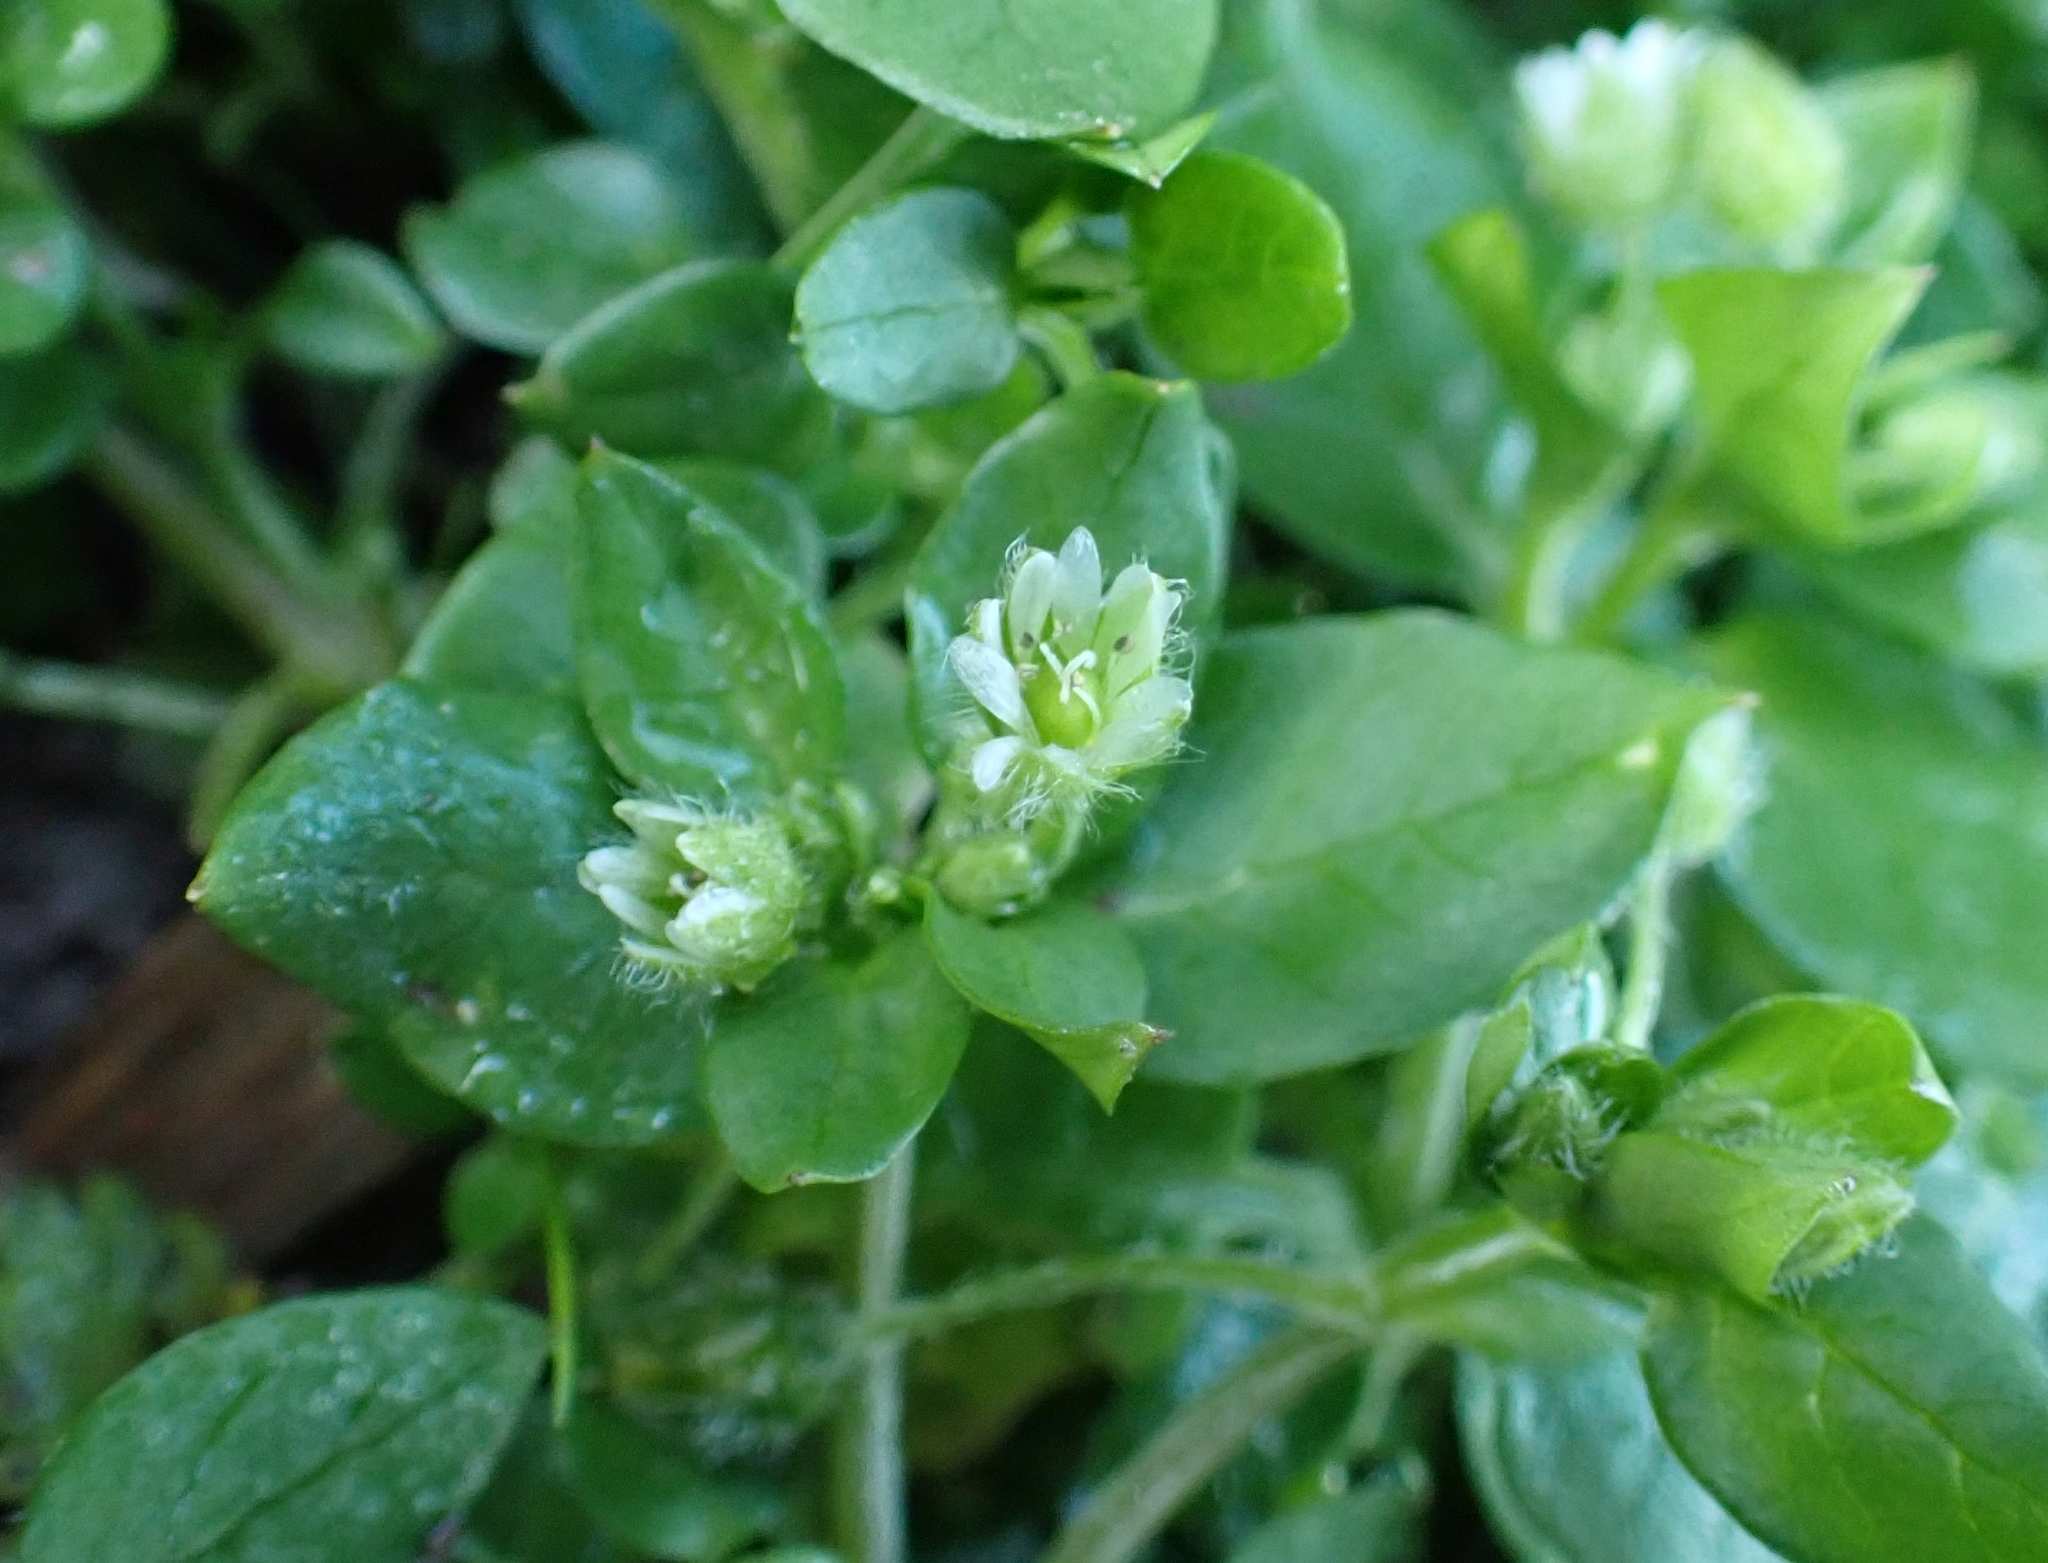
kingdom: Plantae
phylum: Tracheophyta
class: Magnoliopsida
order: Caryophyllales
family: Caryophyllaceae
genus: Stellaria
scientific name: Stellaria media
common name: Common chickweed
